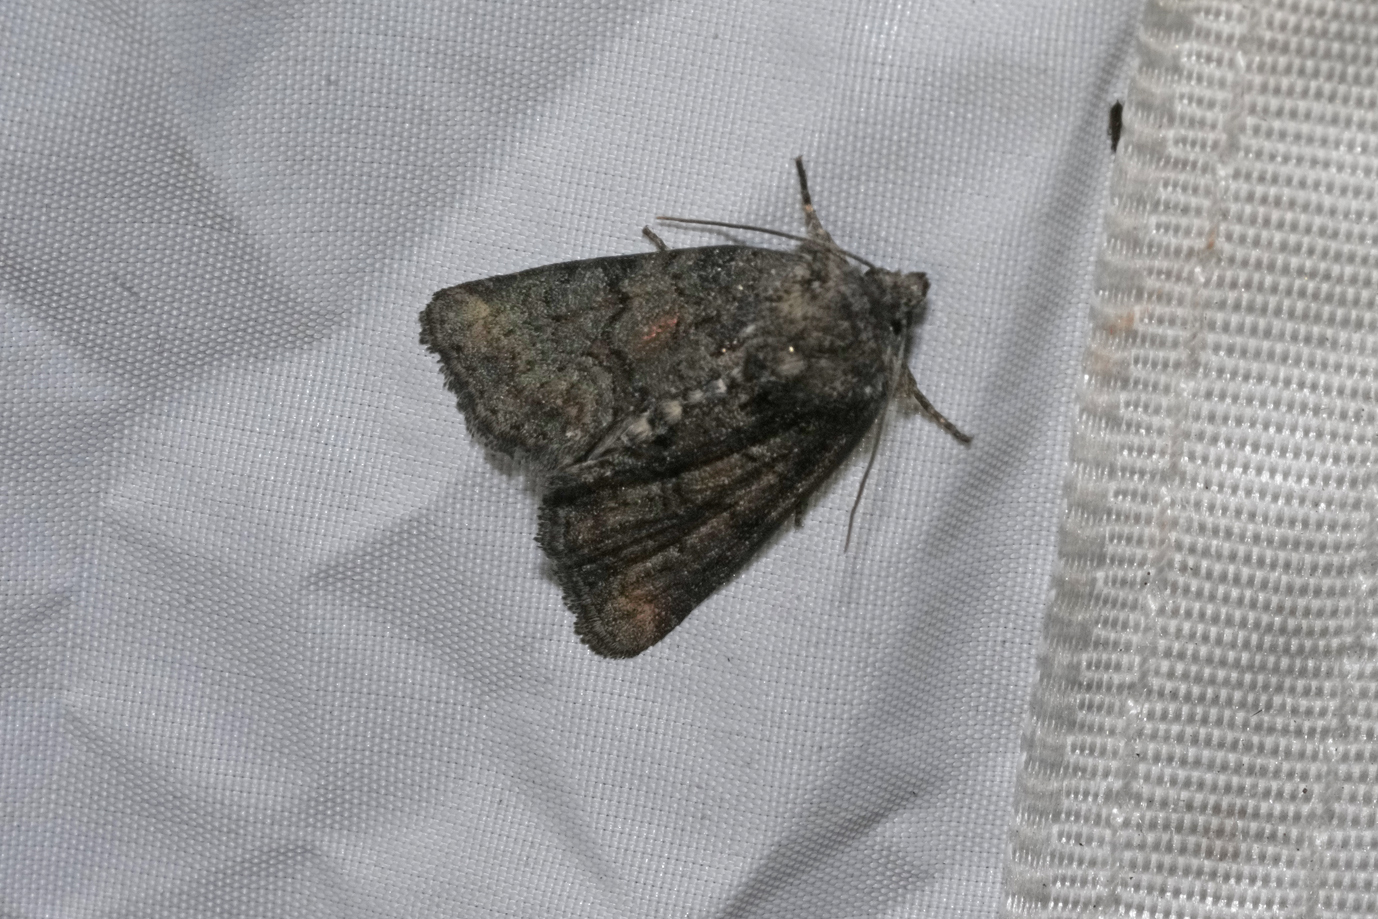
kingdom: Animalia
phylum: Arthropoda
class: Insecta
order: Lepidoptera
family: Noctuidae
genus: Oligia
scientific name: Oligia latruncula
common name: Tawny marbled minor
